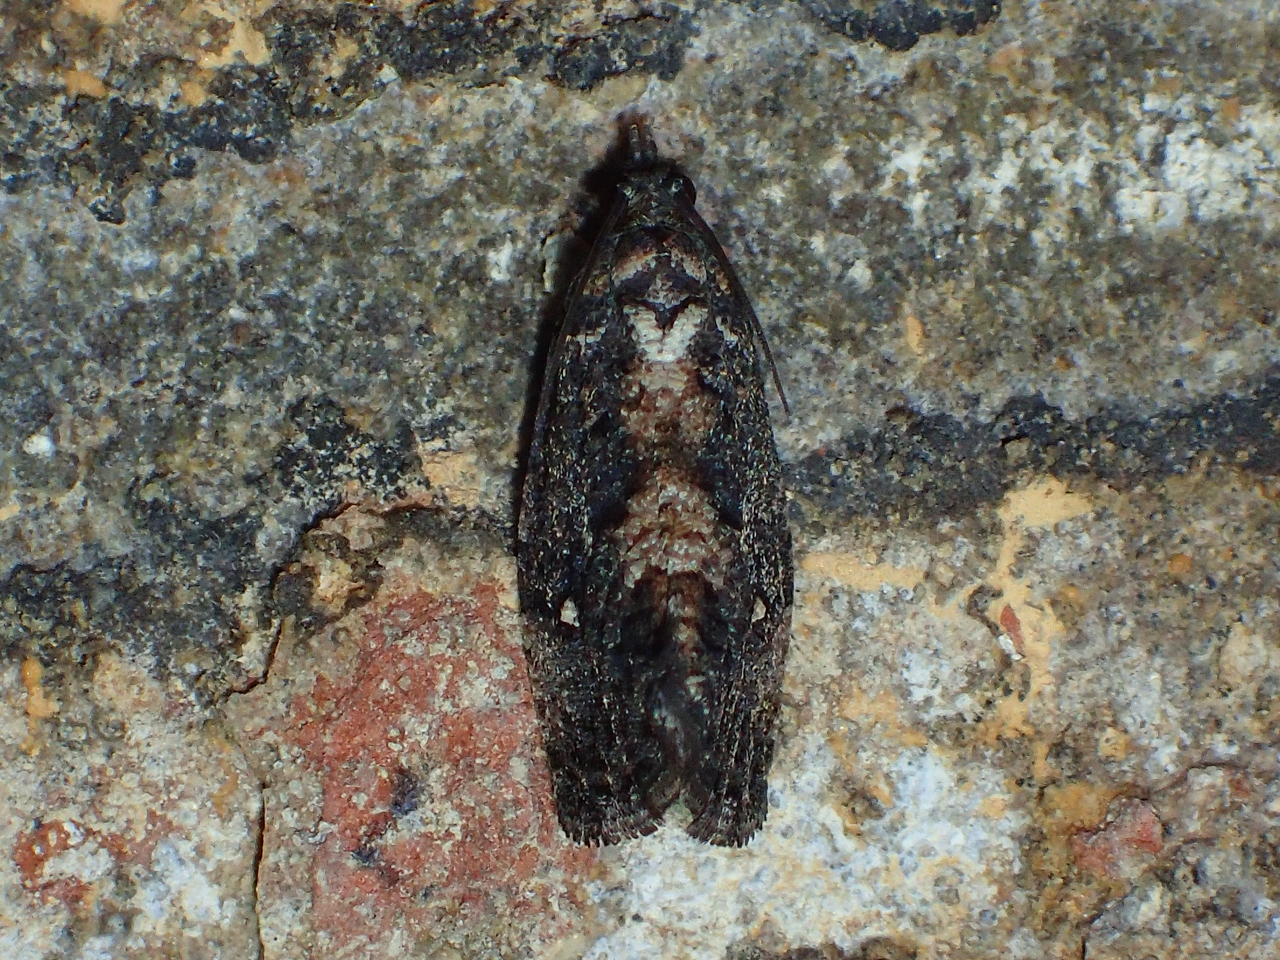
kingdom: Animalia
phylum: Arthropoda
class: Insecta
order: Lepidoptera
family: Tortricidae
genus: Gymnandrosoma
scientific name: Gymnandrosoma punctidiscanum
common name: Dotted ecdytolopha moth
